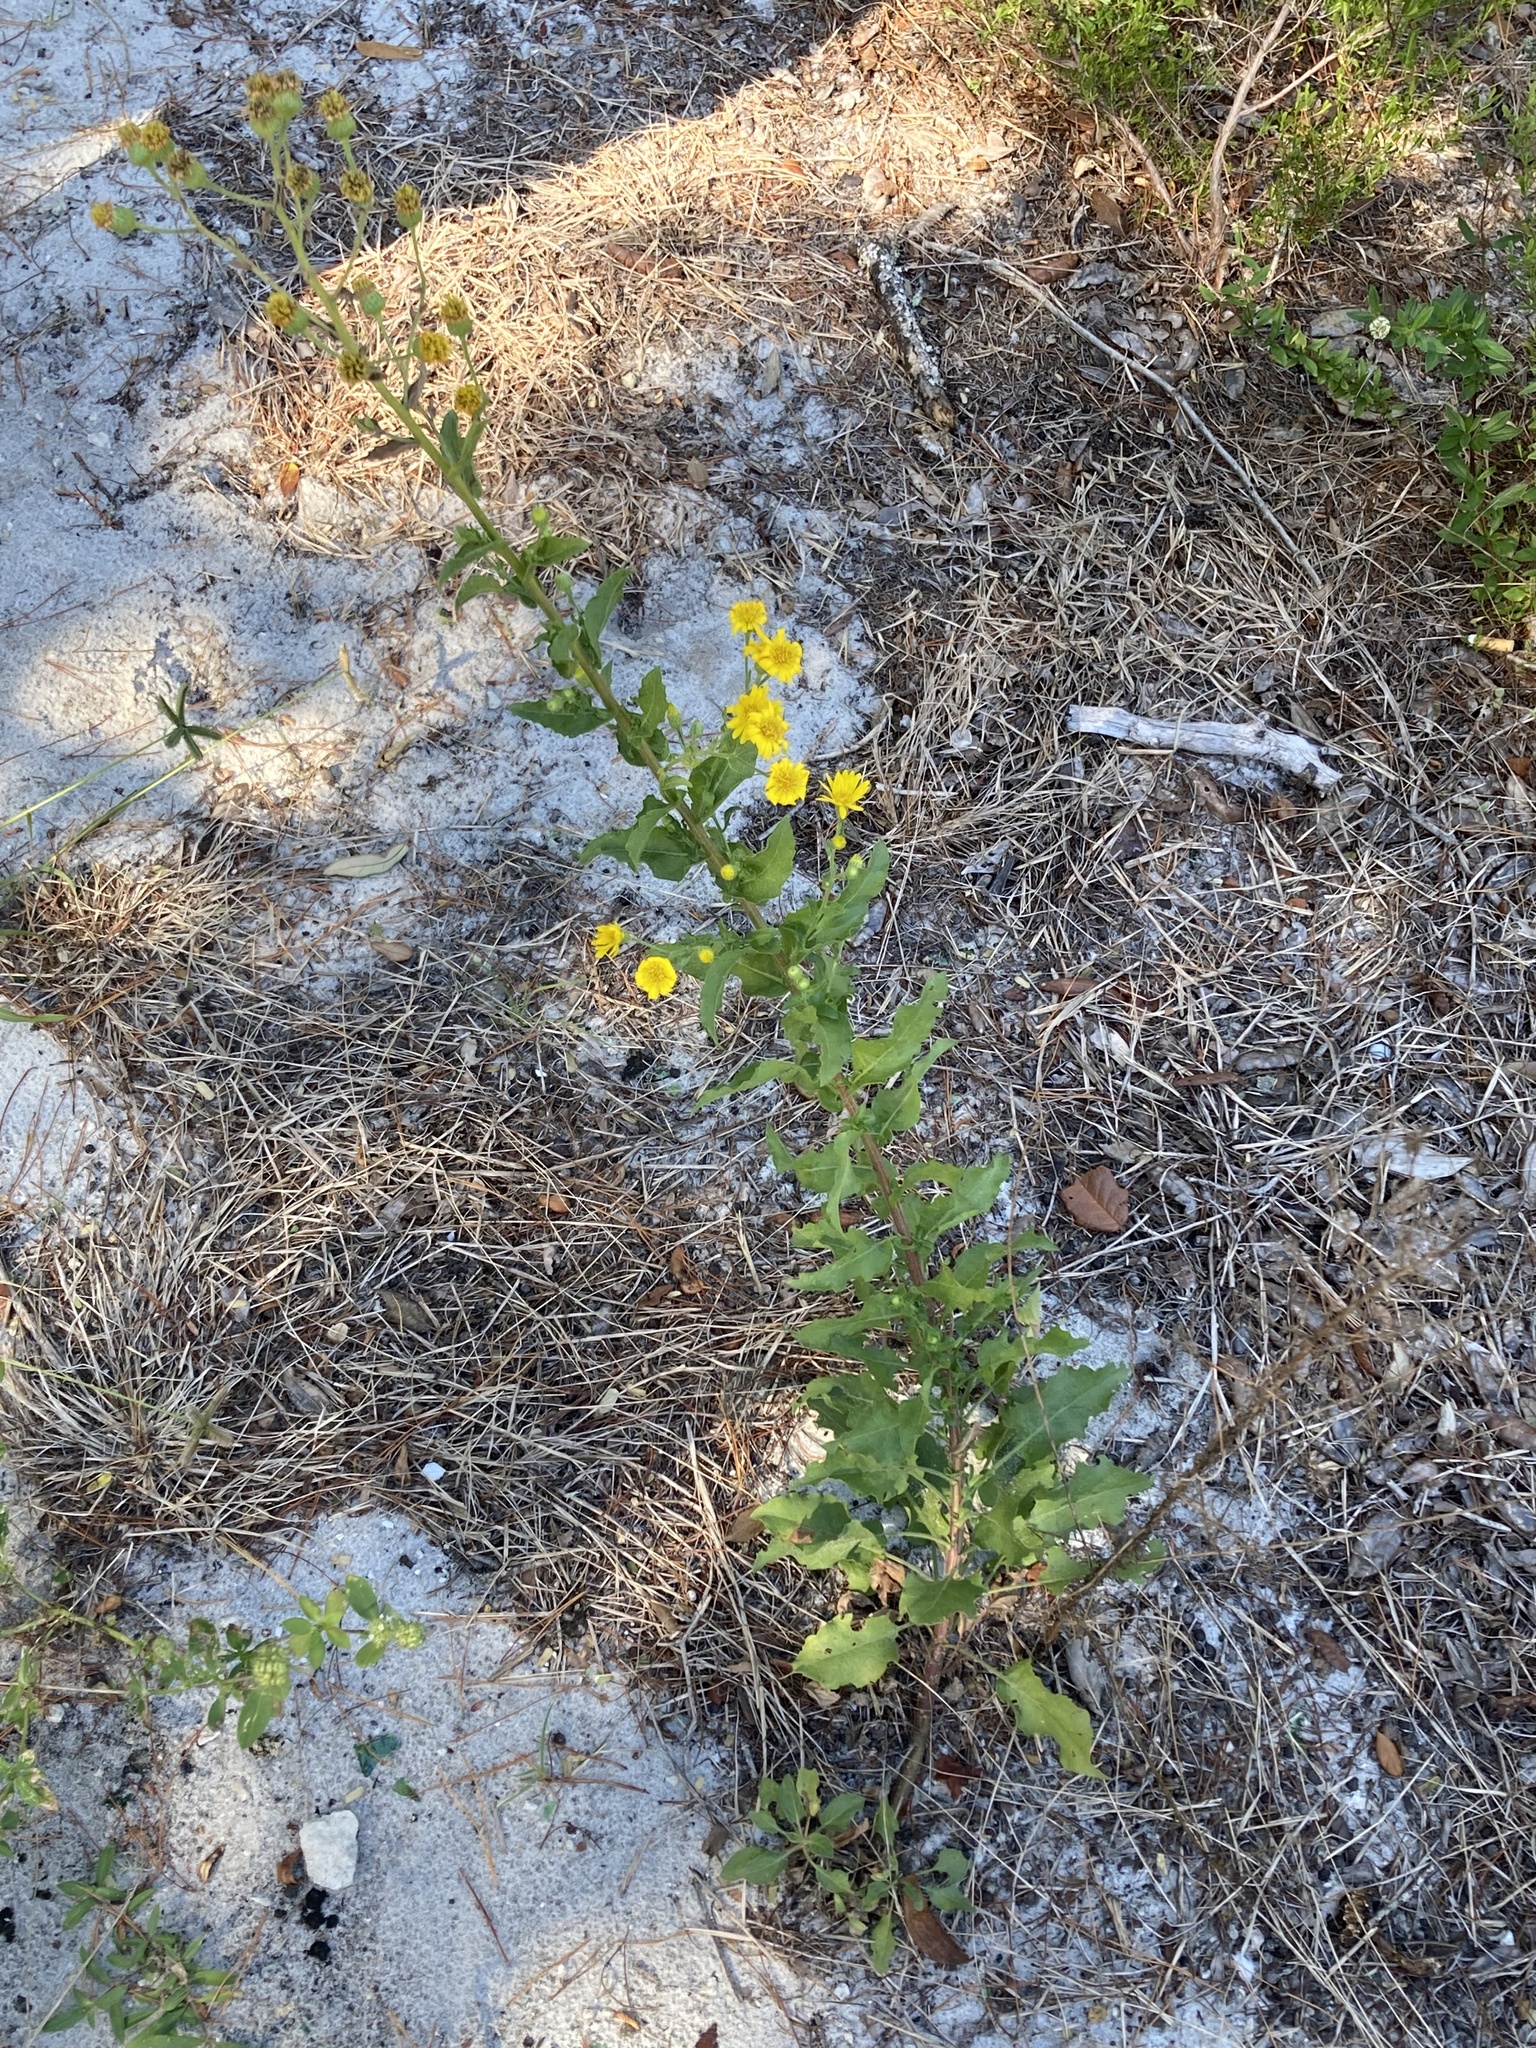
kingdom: Plantae
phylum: Tracheophyta
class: Magnoliopsida
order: Asterales
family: Asteraceae
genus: Heterotheca
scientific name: Heterotheca subaxillaris
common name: Camphorweed
